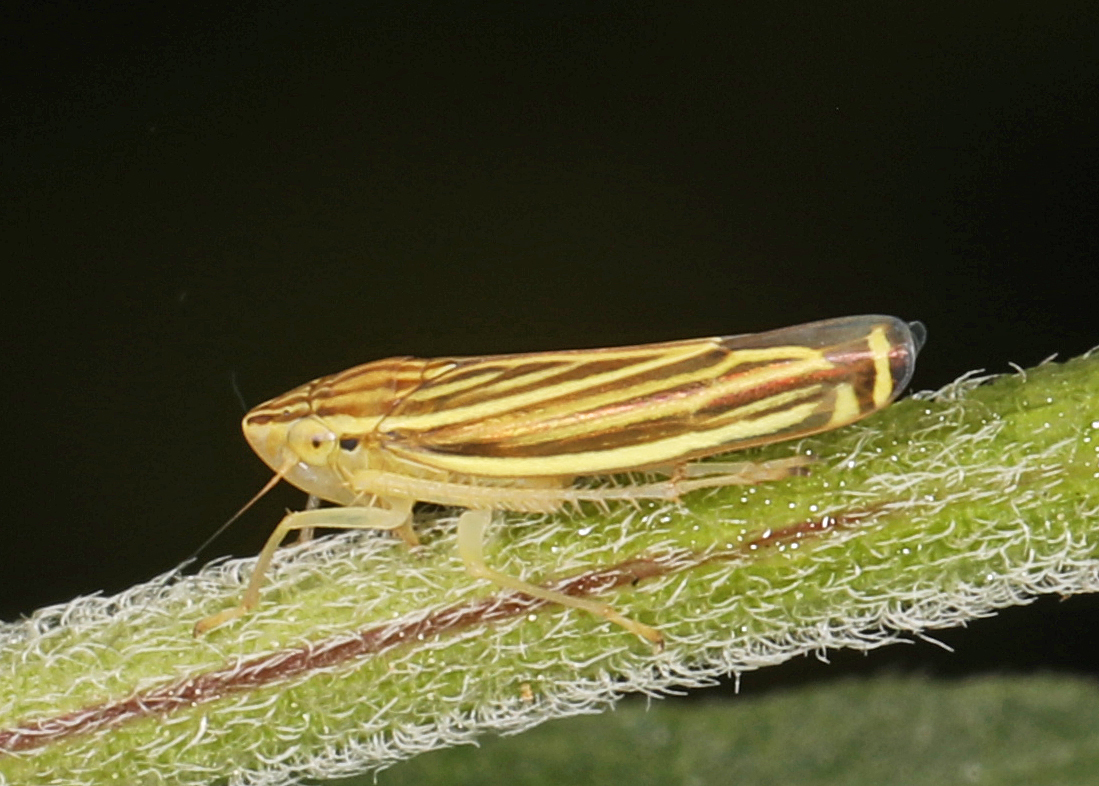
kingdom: Animalia
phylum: Arthropoda
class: Insecta
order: Hemiptera
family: Cicadellidae
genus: Sibovia
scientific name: Sibovia occatoria
